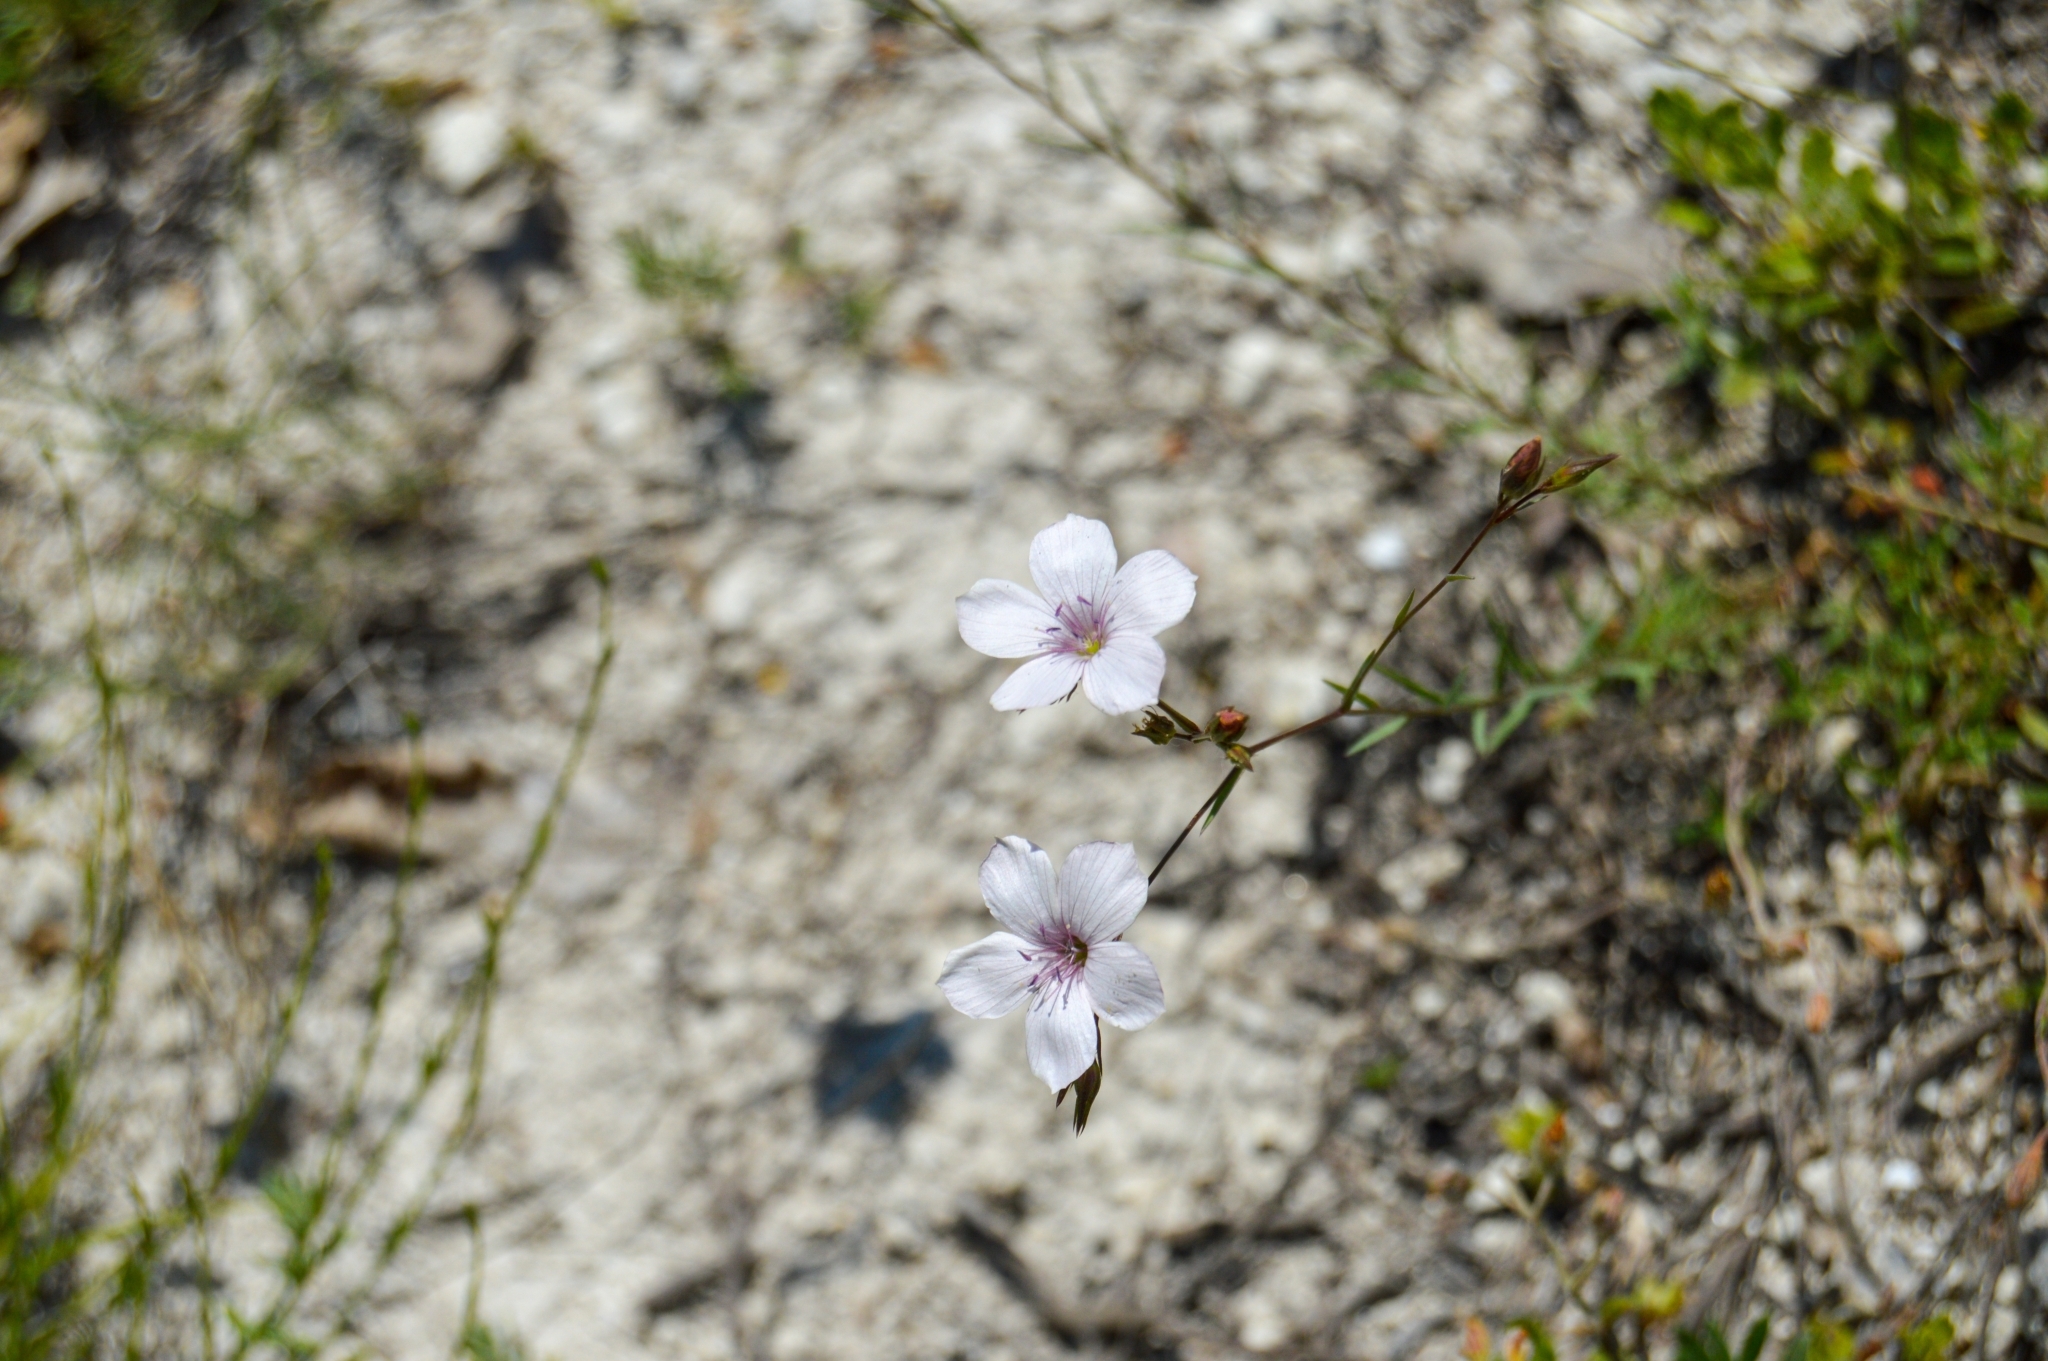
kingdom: Plantae
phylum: Tracheophyta
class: Magnoliopsida
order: Malpighiales
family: Linaceae
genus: Linum
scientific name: Linum tenuifolium
